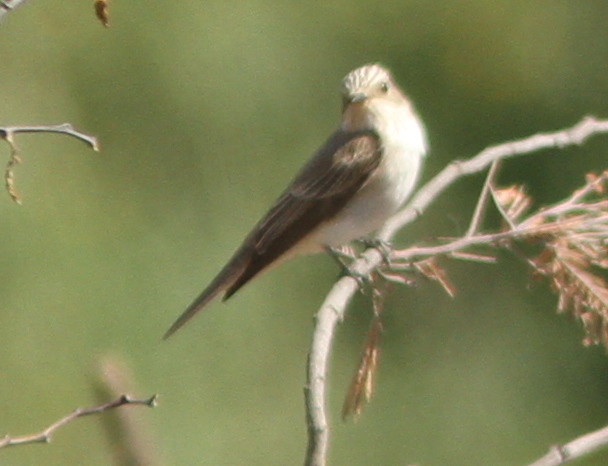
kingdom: Animalia
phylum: Chordata
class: Aves
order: Passeriformes
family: Muscicapidae
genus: Muscicapa
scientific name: Muscicapa striata
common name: Spotted flycatcher
